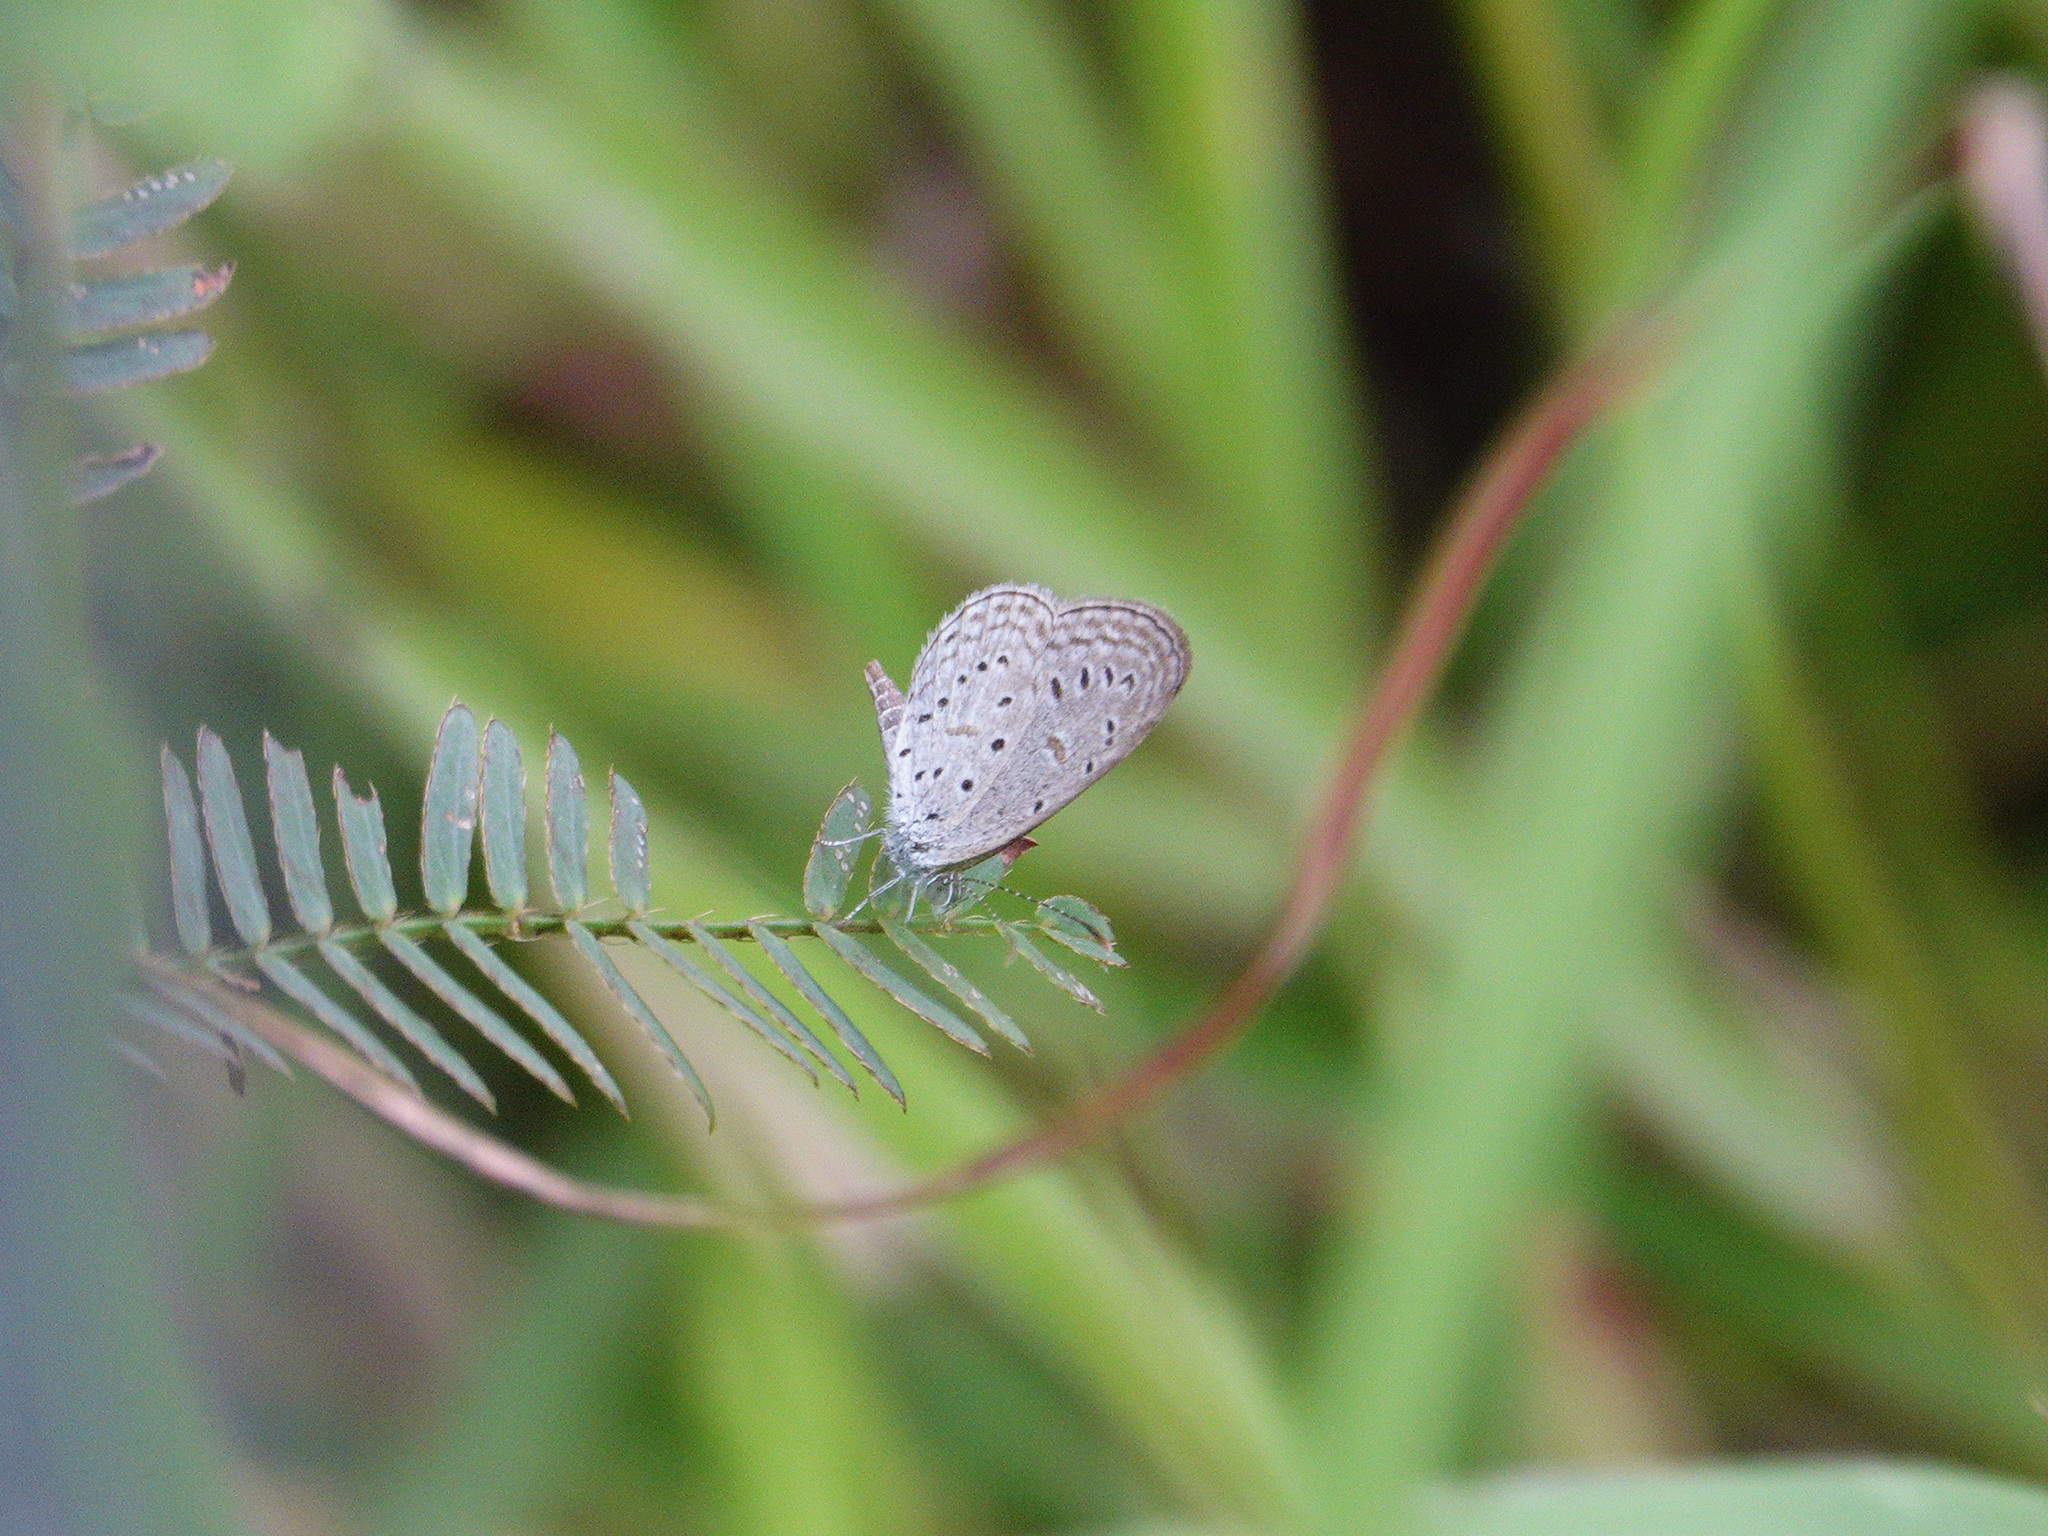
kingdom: Animalia
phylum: Arthropoda
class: Insecta
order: Lepidoptera
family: Lycaenidae
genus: Zizula
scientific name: Zizula hylax
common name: Gaika blue
